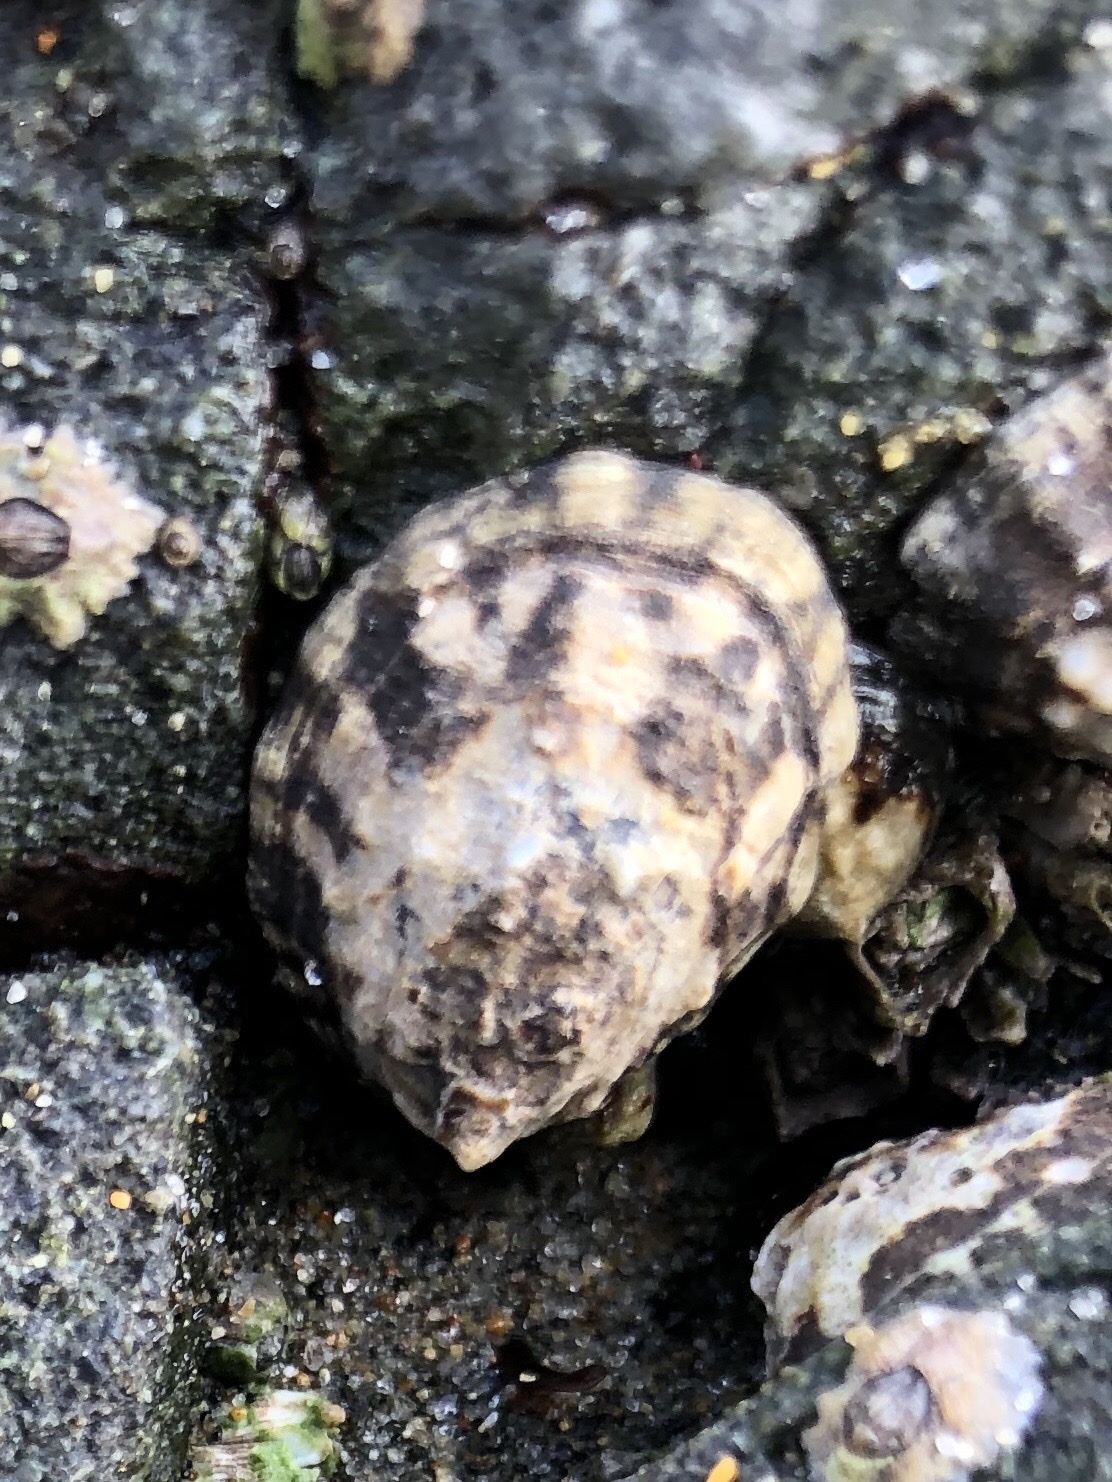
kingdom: Animalia
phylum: Mollusca
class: Gastropoda
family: Lottiidae
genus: Lottia
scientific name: Lottia
